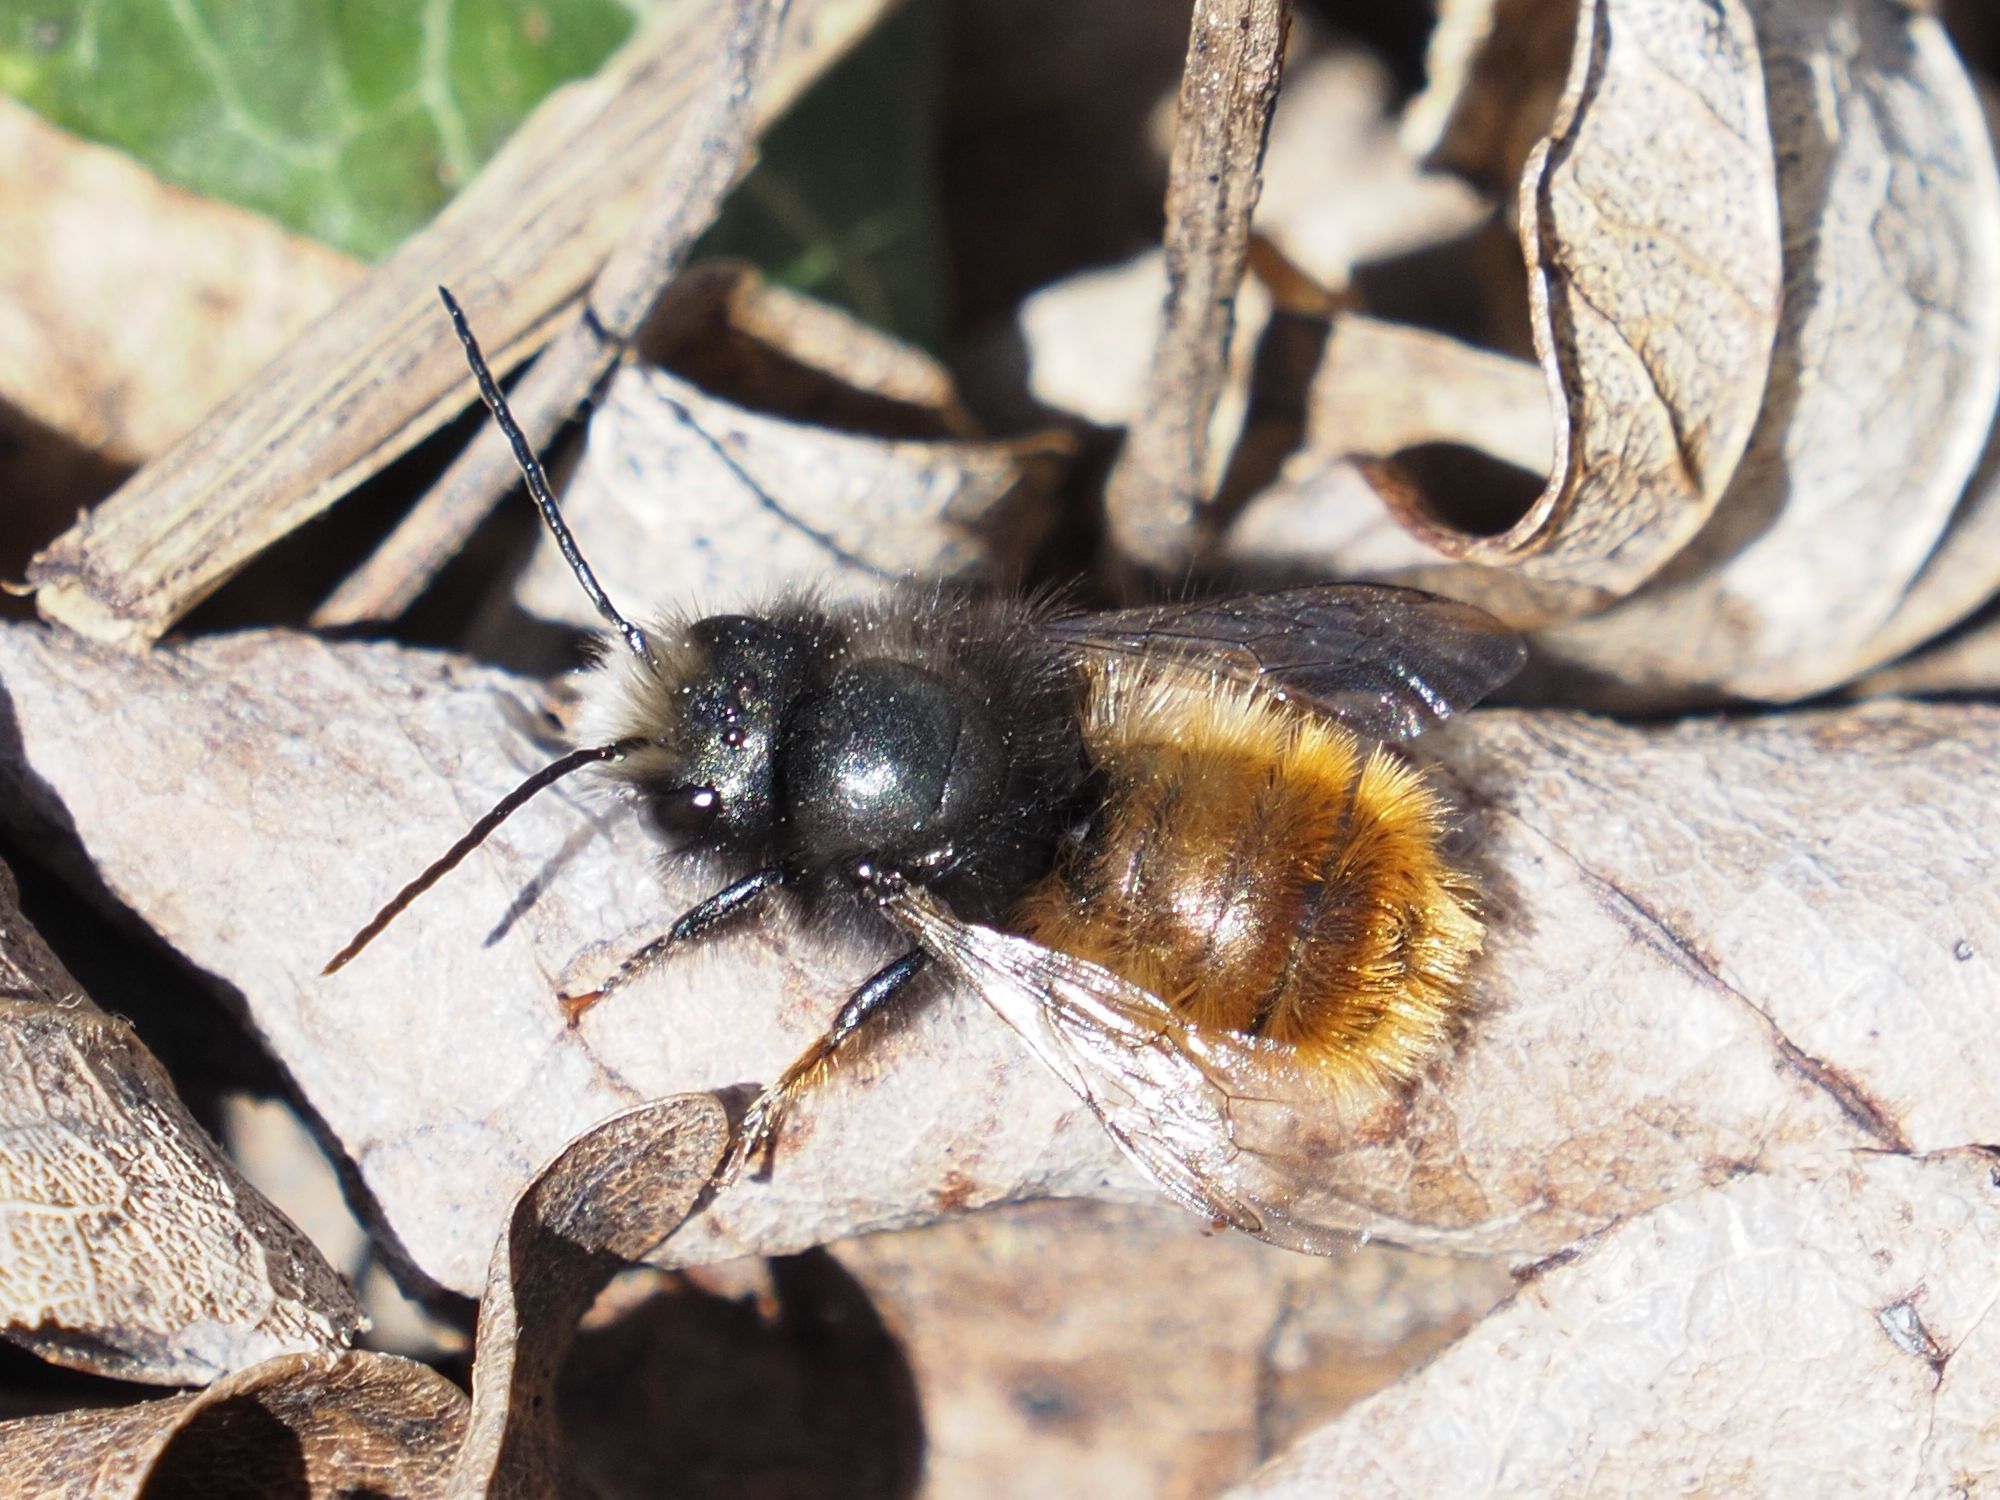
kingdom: Animalia
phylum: Arthropoda
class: Insecta
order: Hymenoptera
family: Megachilidae
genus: Osmia
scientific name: Osmia cornuta
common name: Mason bee
